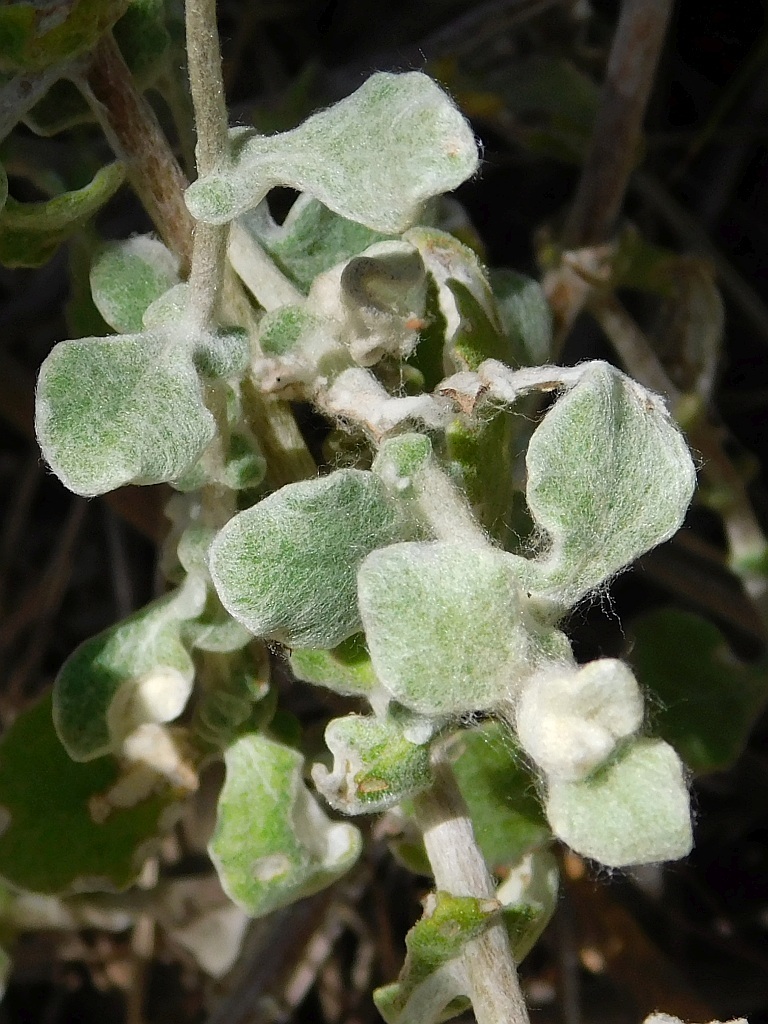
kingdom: Plantae
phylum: Tracheophyta
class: Magnoliopsida
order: Asterales
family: Asteraceae
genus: Helichrysum
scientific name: Helichrysum patulum
